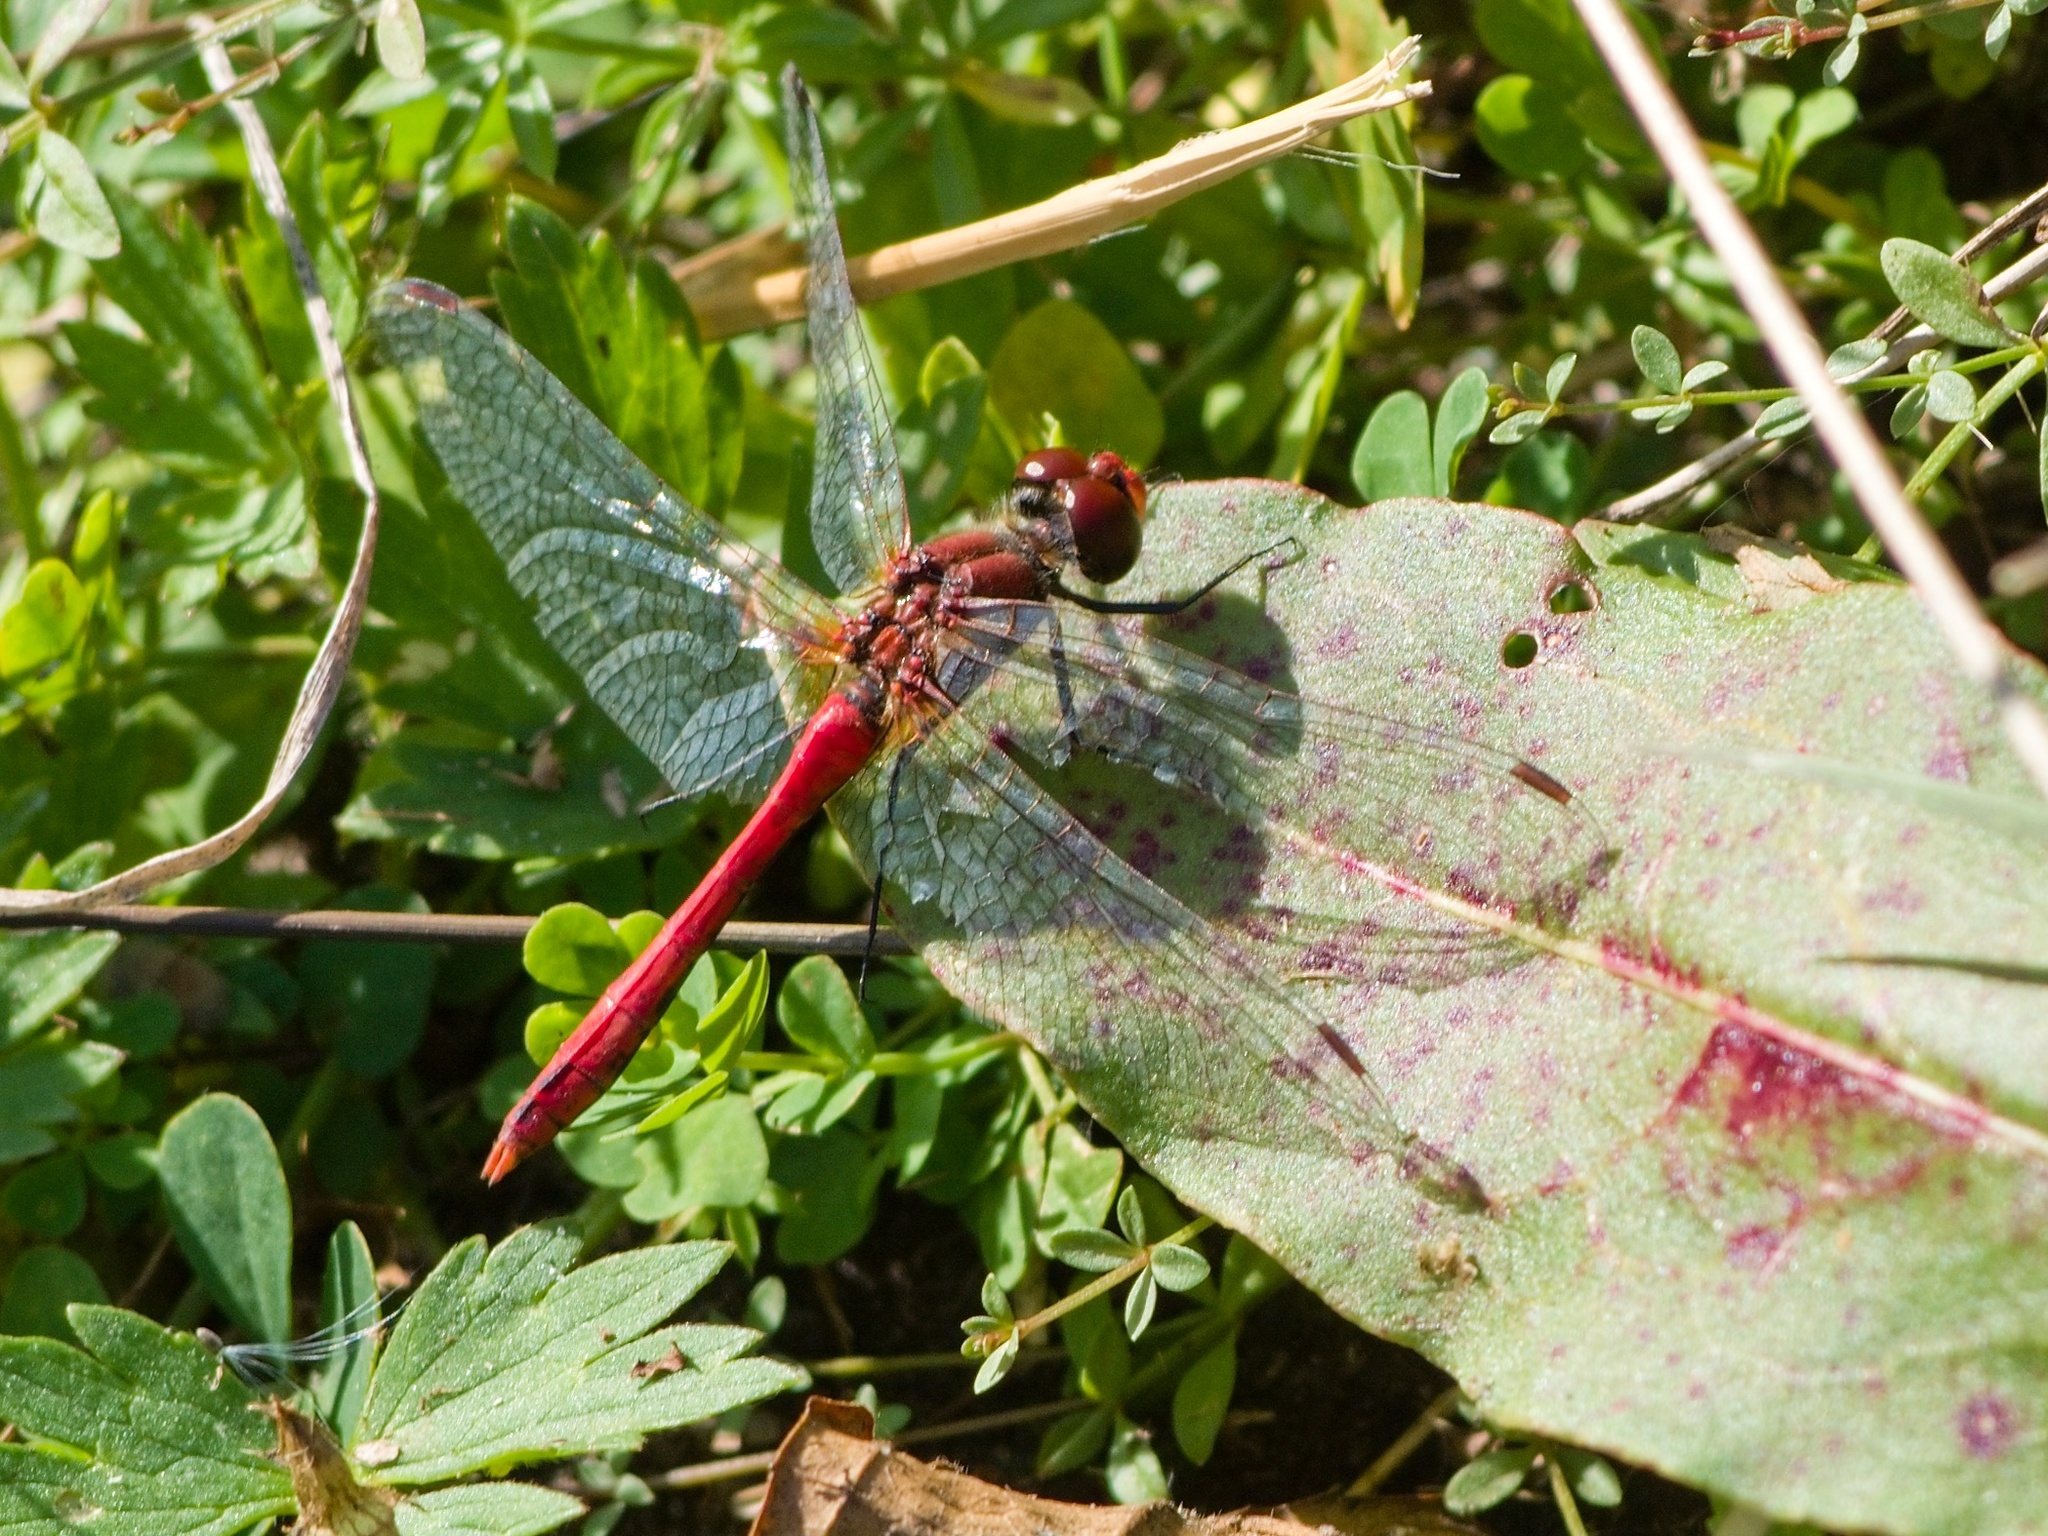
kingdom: Animalia
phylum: Arthropoda
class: Insecta
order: Odonata
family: Libellulidae
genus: Sympetrum
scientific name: Sympetrum sanguineum
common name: Ruddy darter
